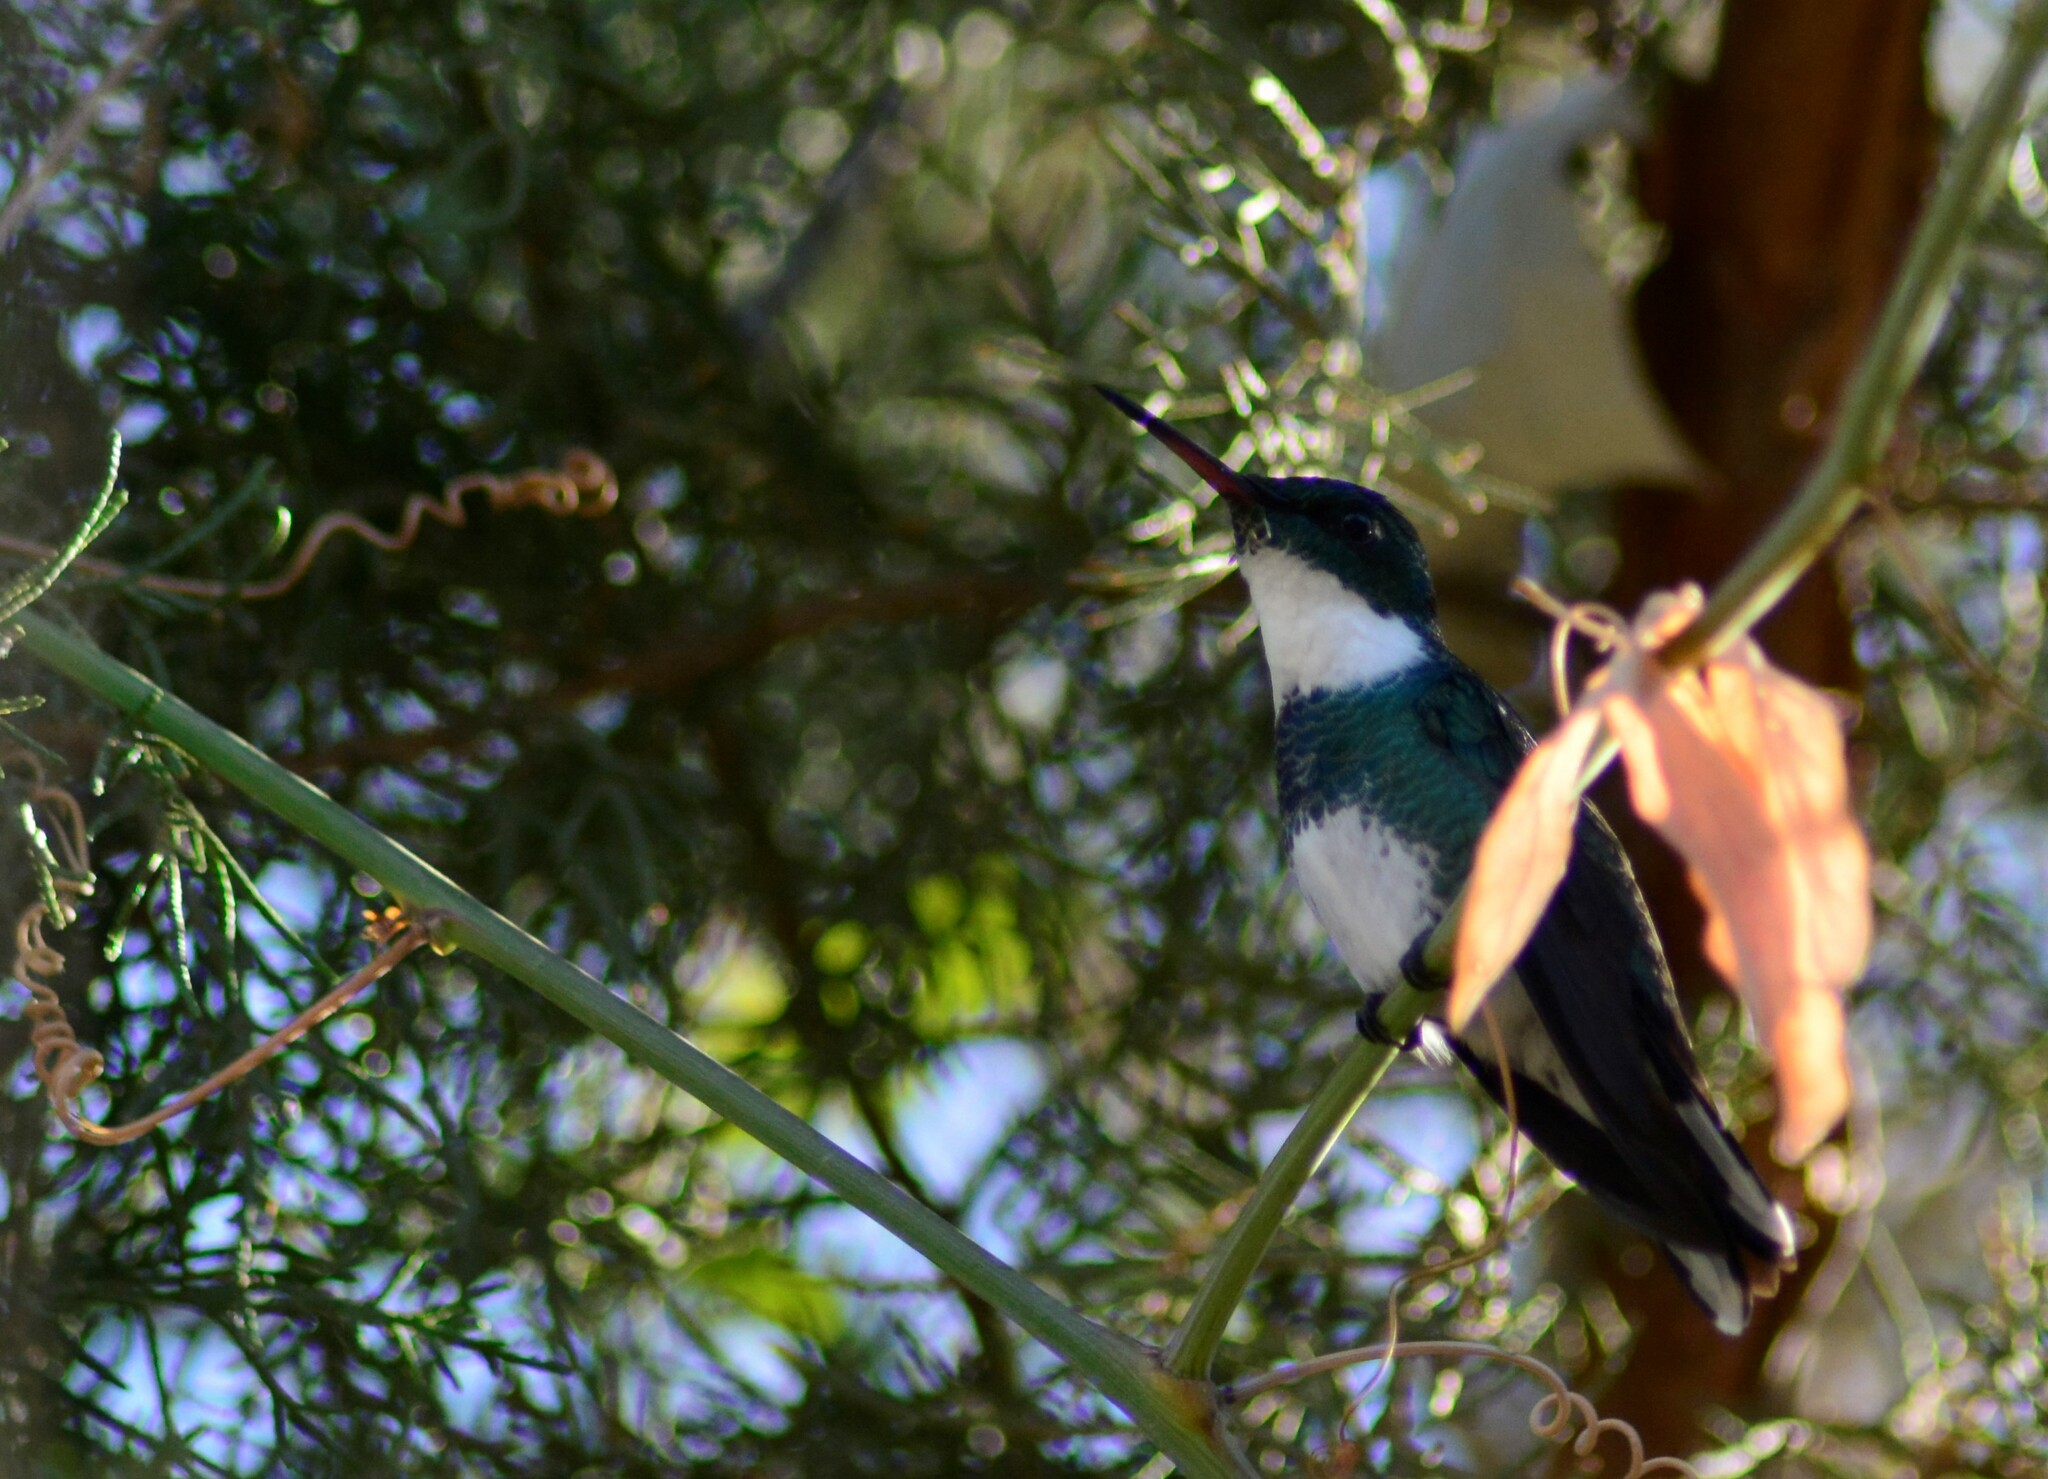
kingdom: Animalia
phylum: Chordata
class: Aves
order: Apodiformes
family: Trochilidae
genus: Leucochloris
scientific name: Leucochloris albicollis
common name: White-throated hummingbird
